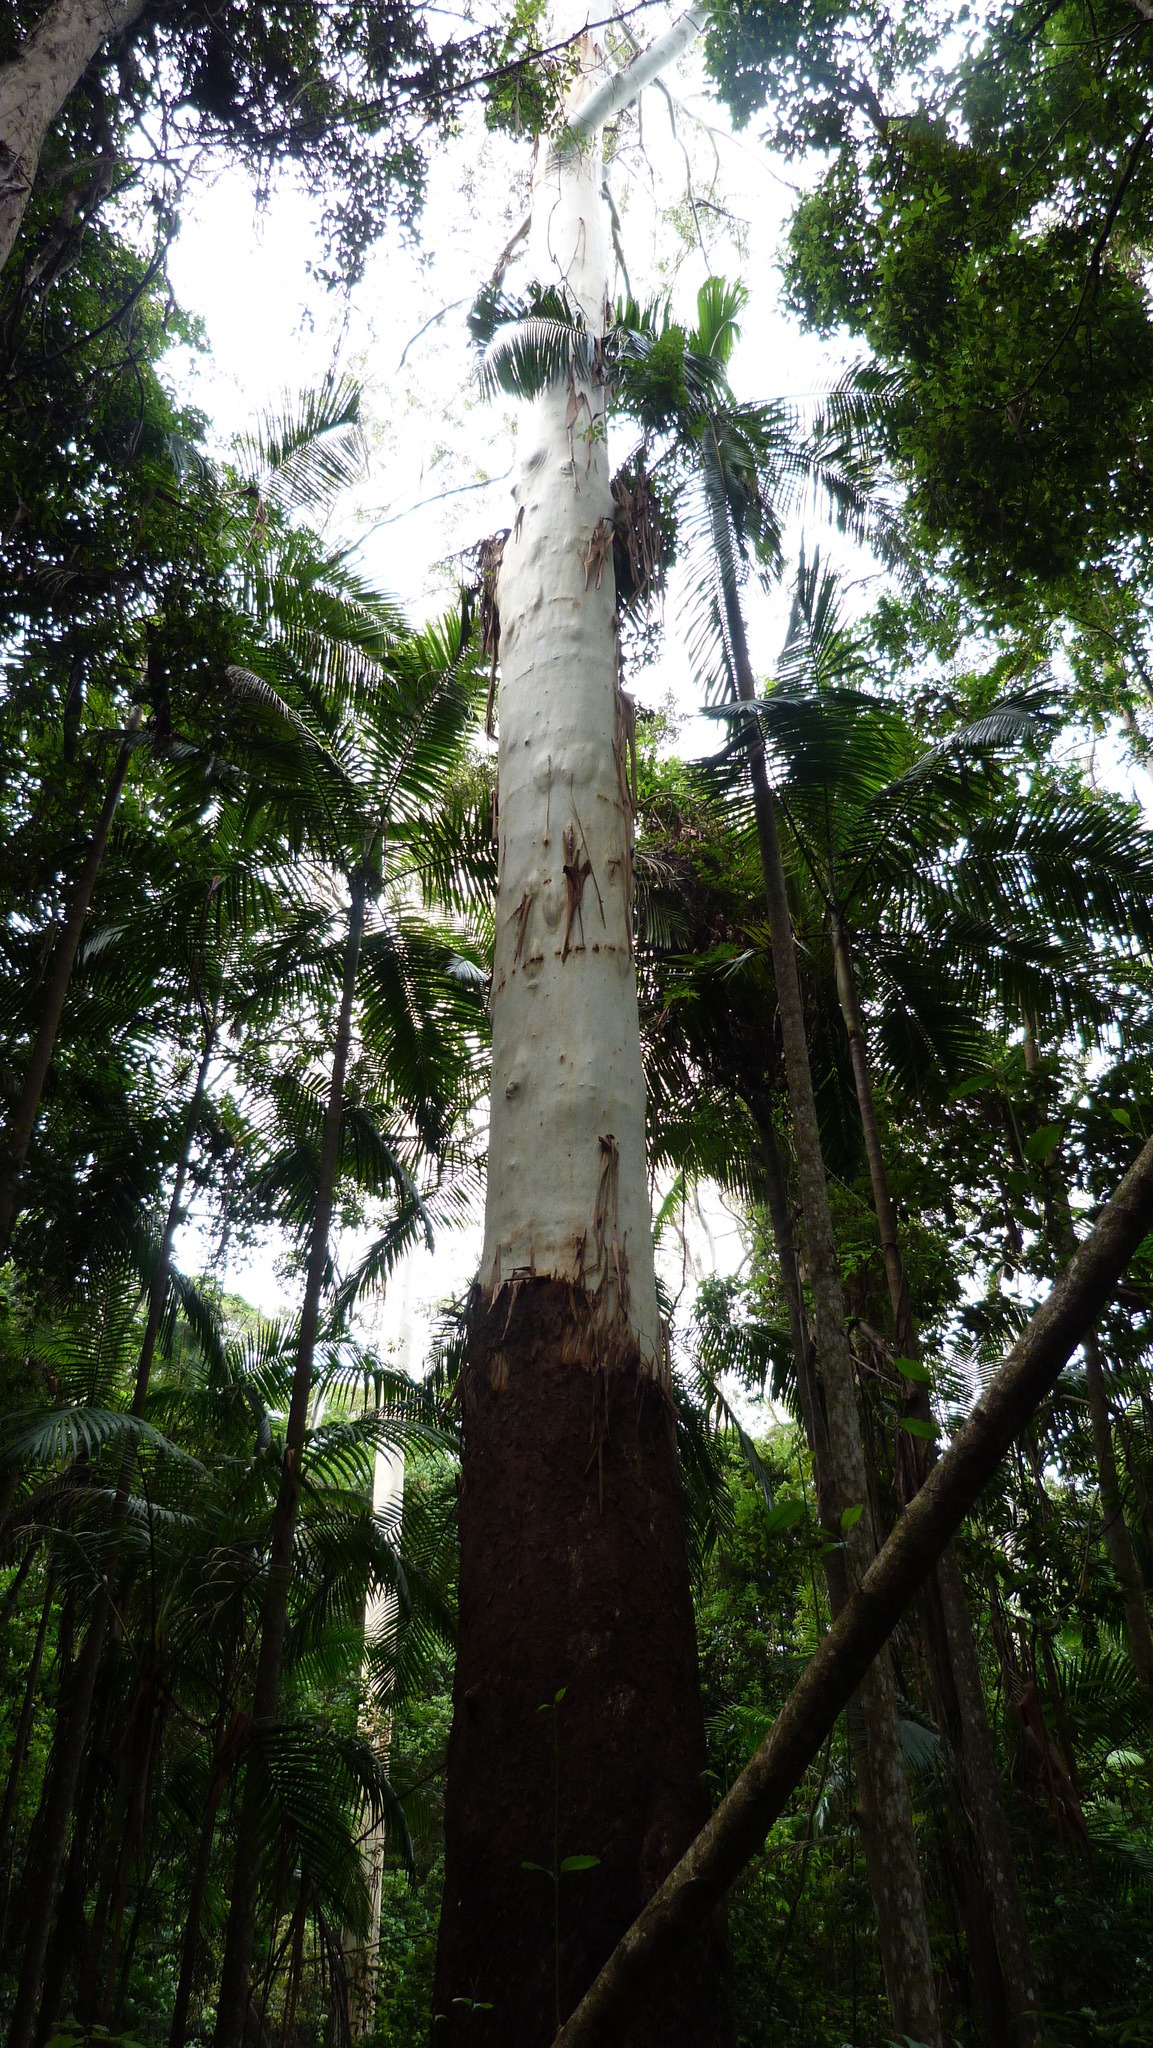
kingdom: Plantae
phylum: Tracheophyta
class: Magnoliopsida
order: Myrtales
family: Myrtaceae
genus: Eucalyptus
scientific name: Eucalyptus grandis
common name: Grand eucalyptus
